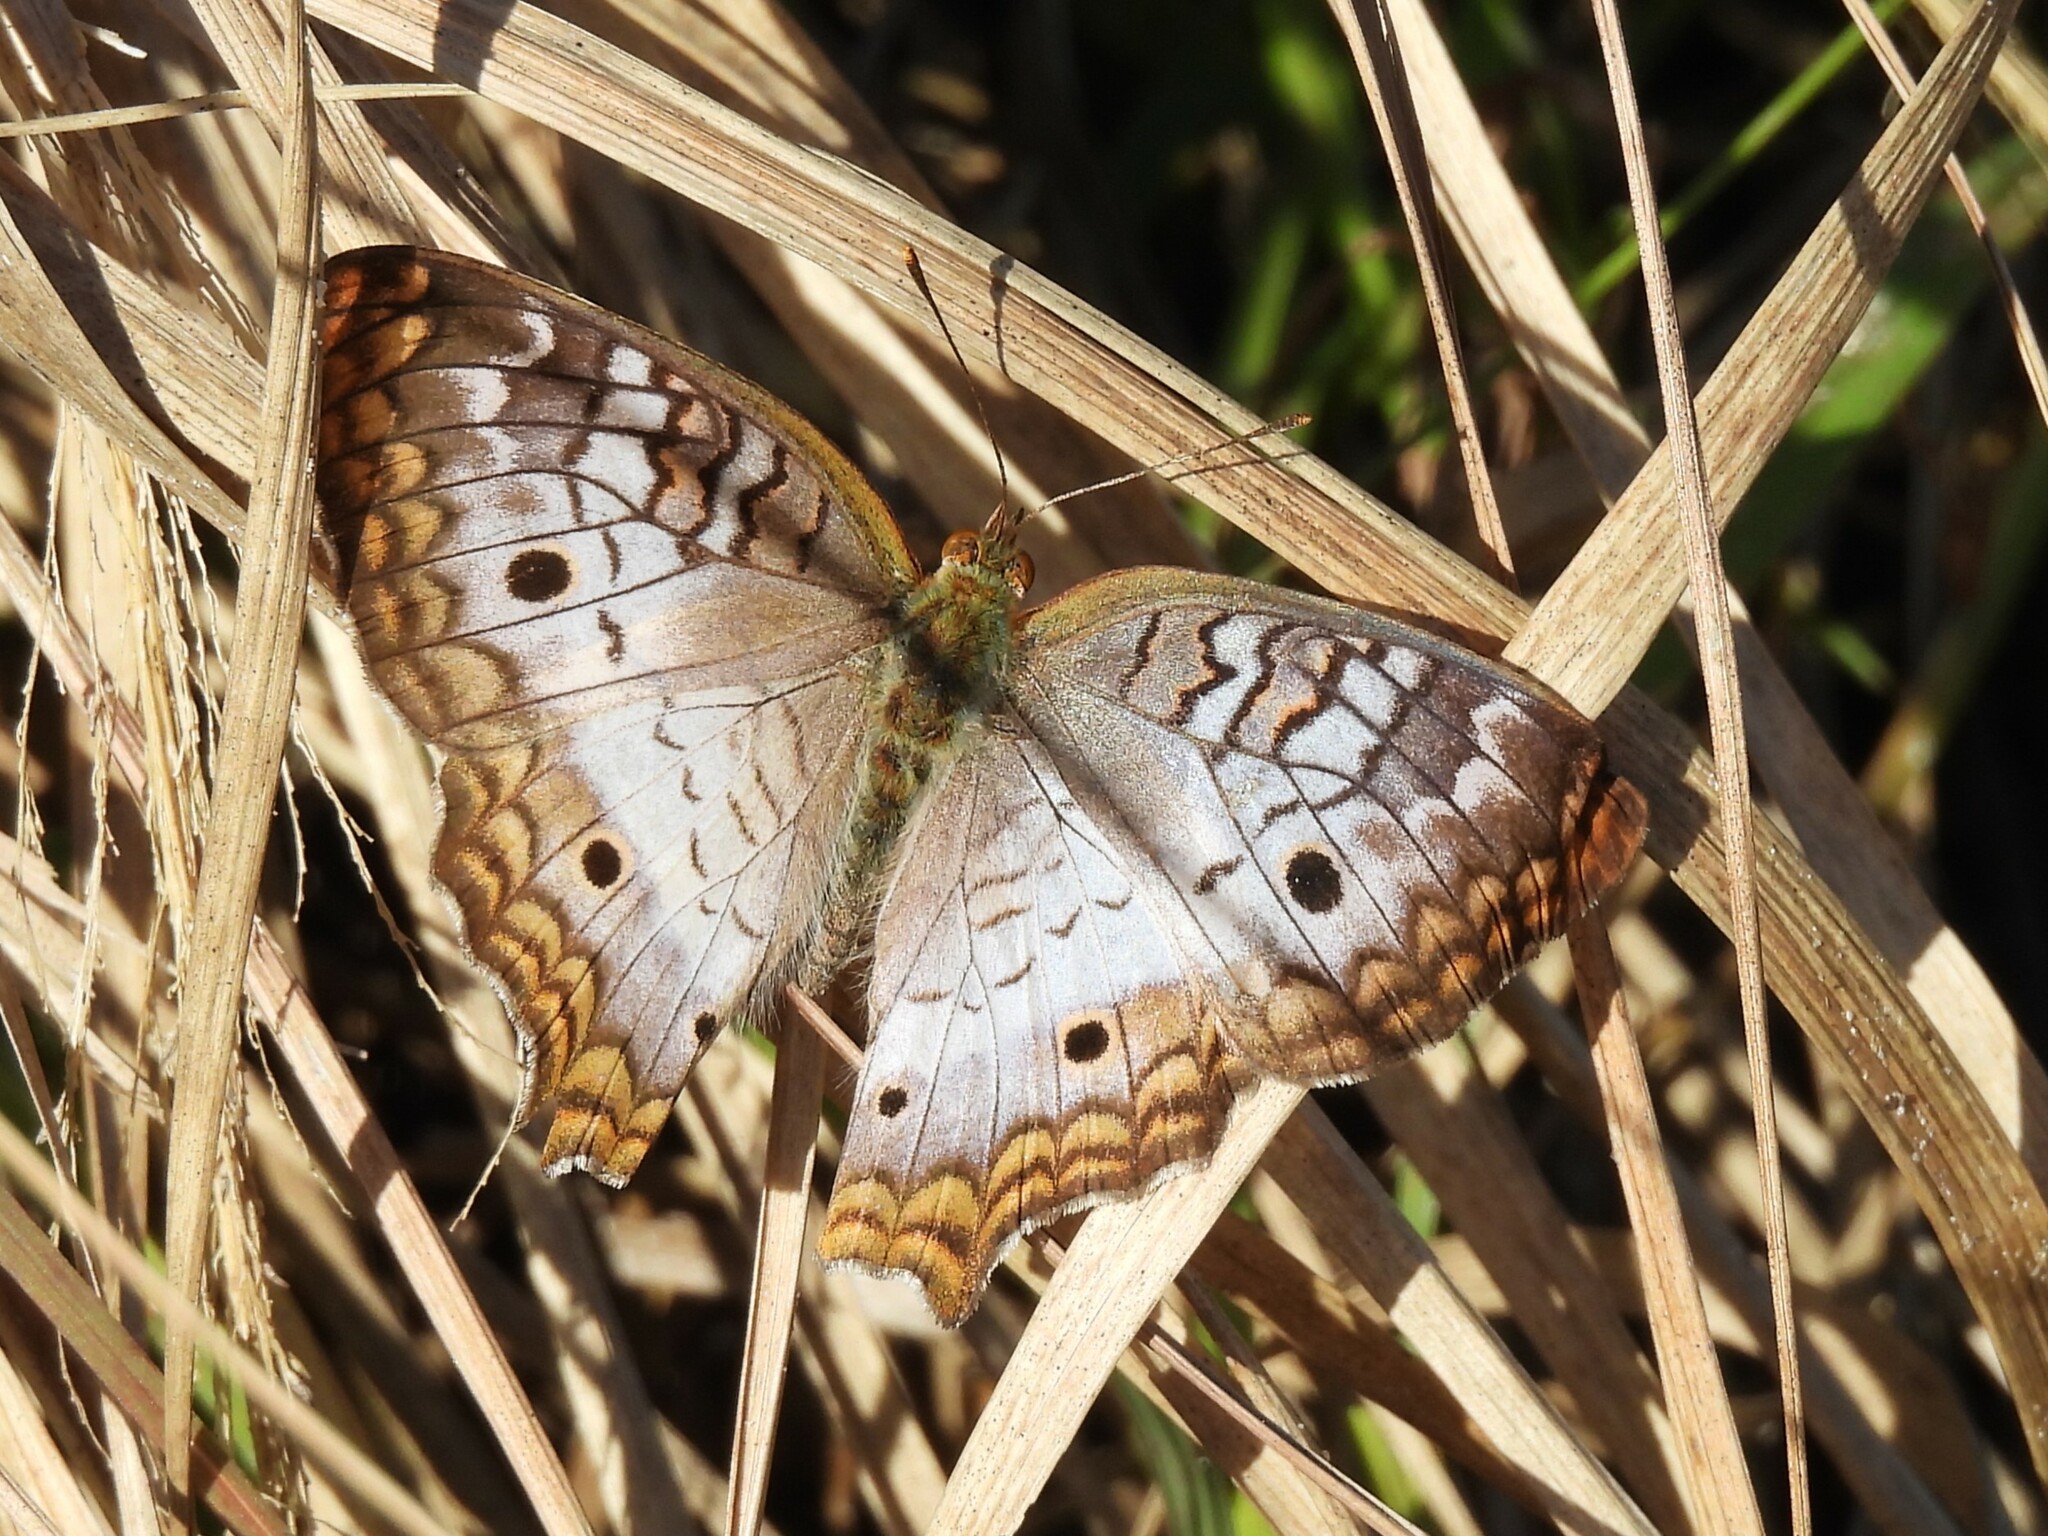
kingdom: Animalia
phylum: Arthropoda
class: Insecta
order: Lepidoptera
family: Nymphalidae
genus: Anartia
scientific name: Anartia jatrophae
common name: White peacock
